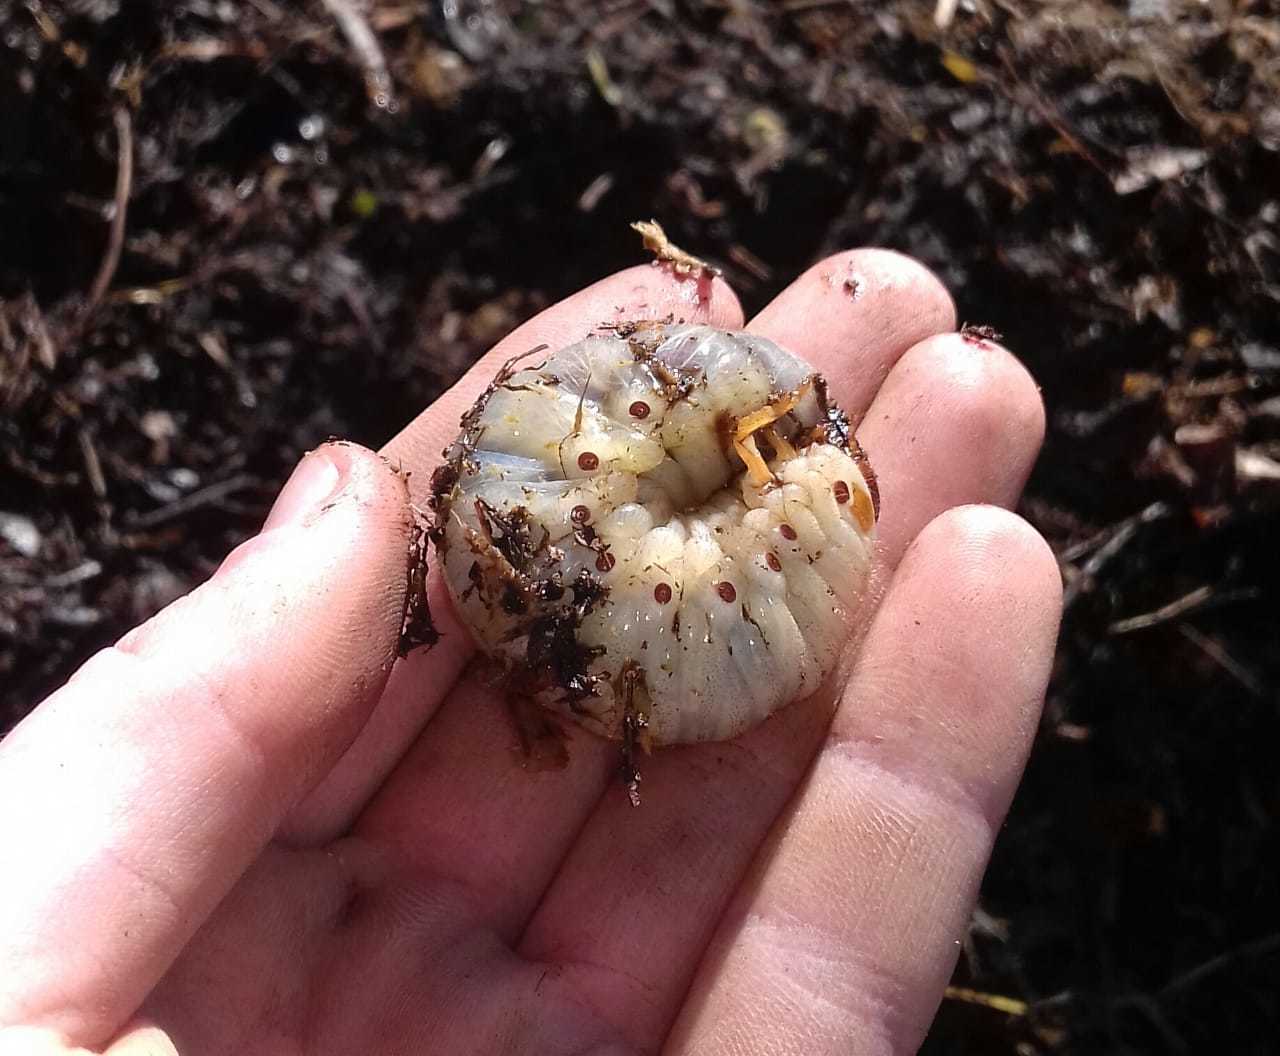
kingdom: Animalia
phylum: Arthropoda
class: Insecta
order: Coleoptera
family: Scarabaeidae
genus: Oryctes
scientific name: Oryctes boas
